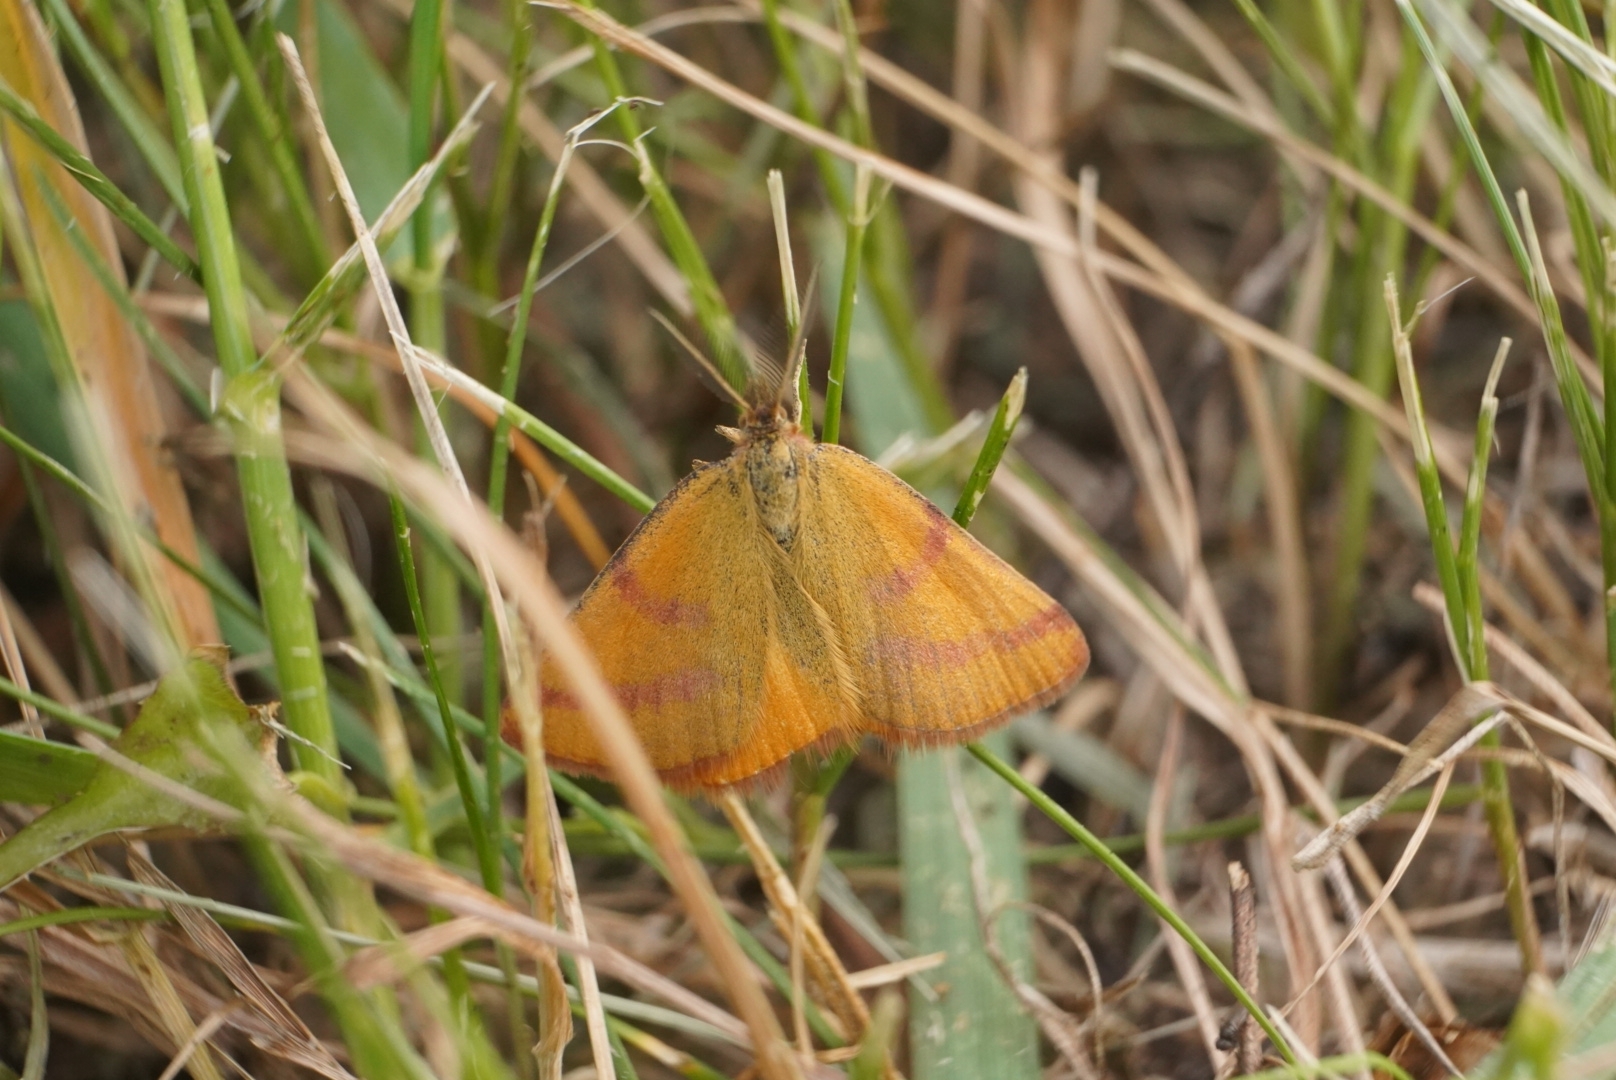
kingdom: Animalia
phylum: Arthropoda
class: Insecta
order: Lepidoptera
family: Geometridae
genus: Lythria
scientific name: Lythria purpuraria
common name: Purple-barred yellow
